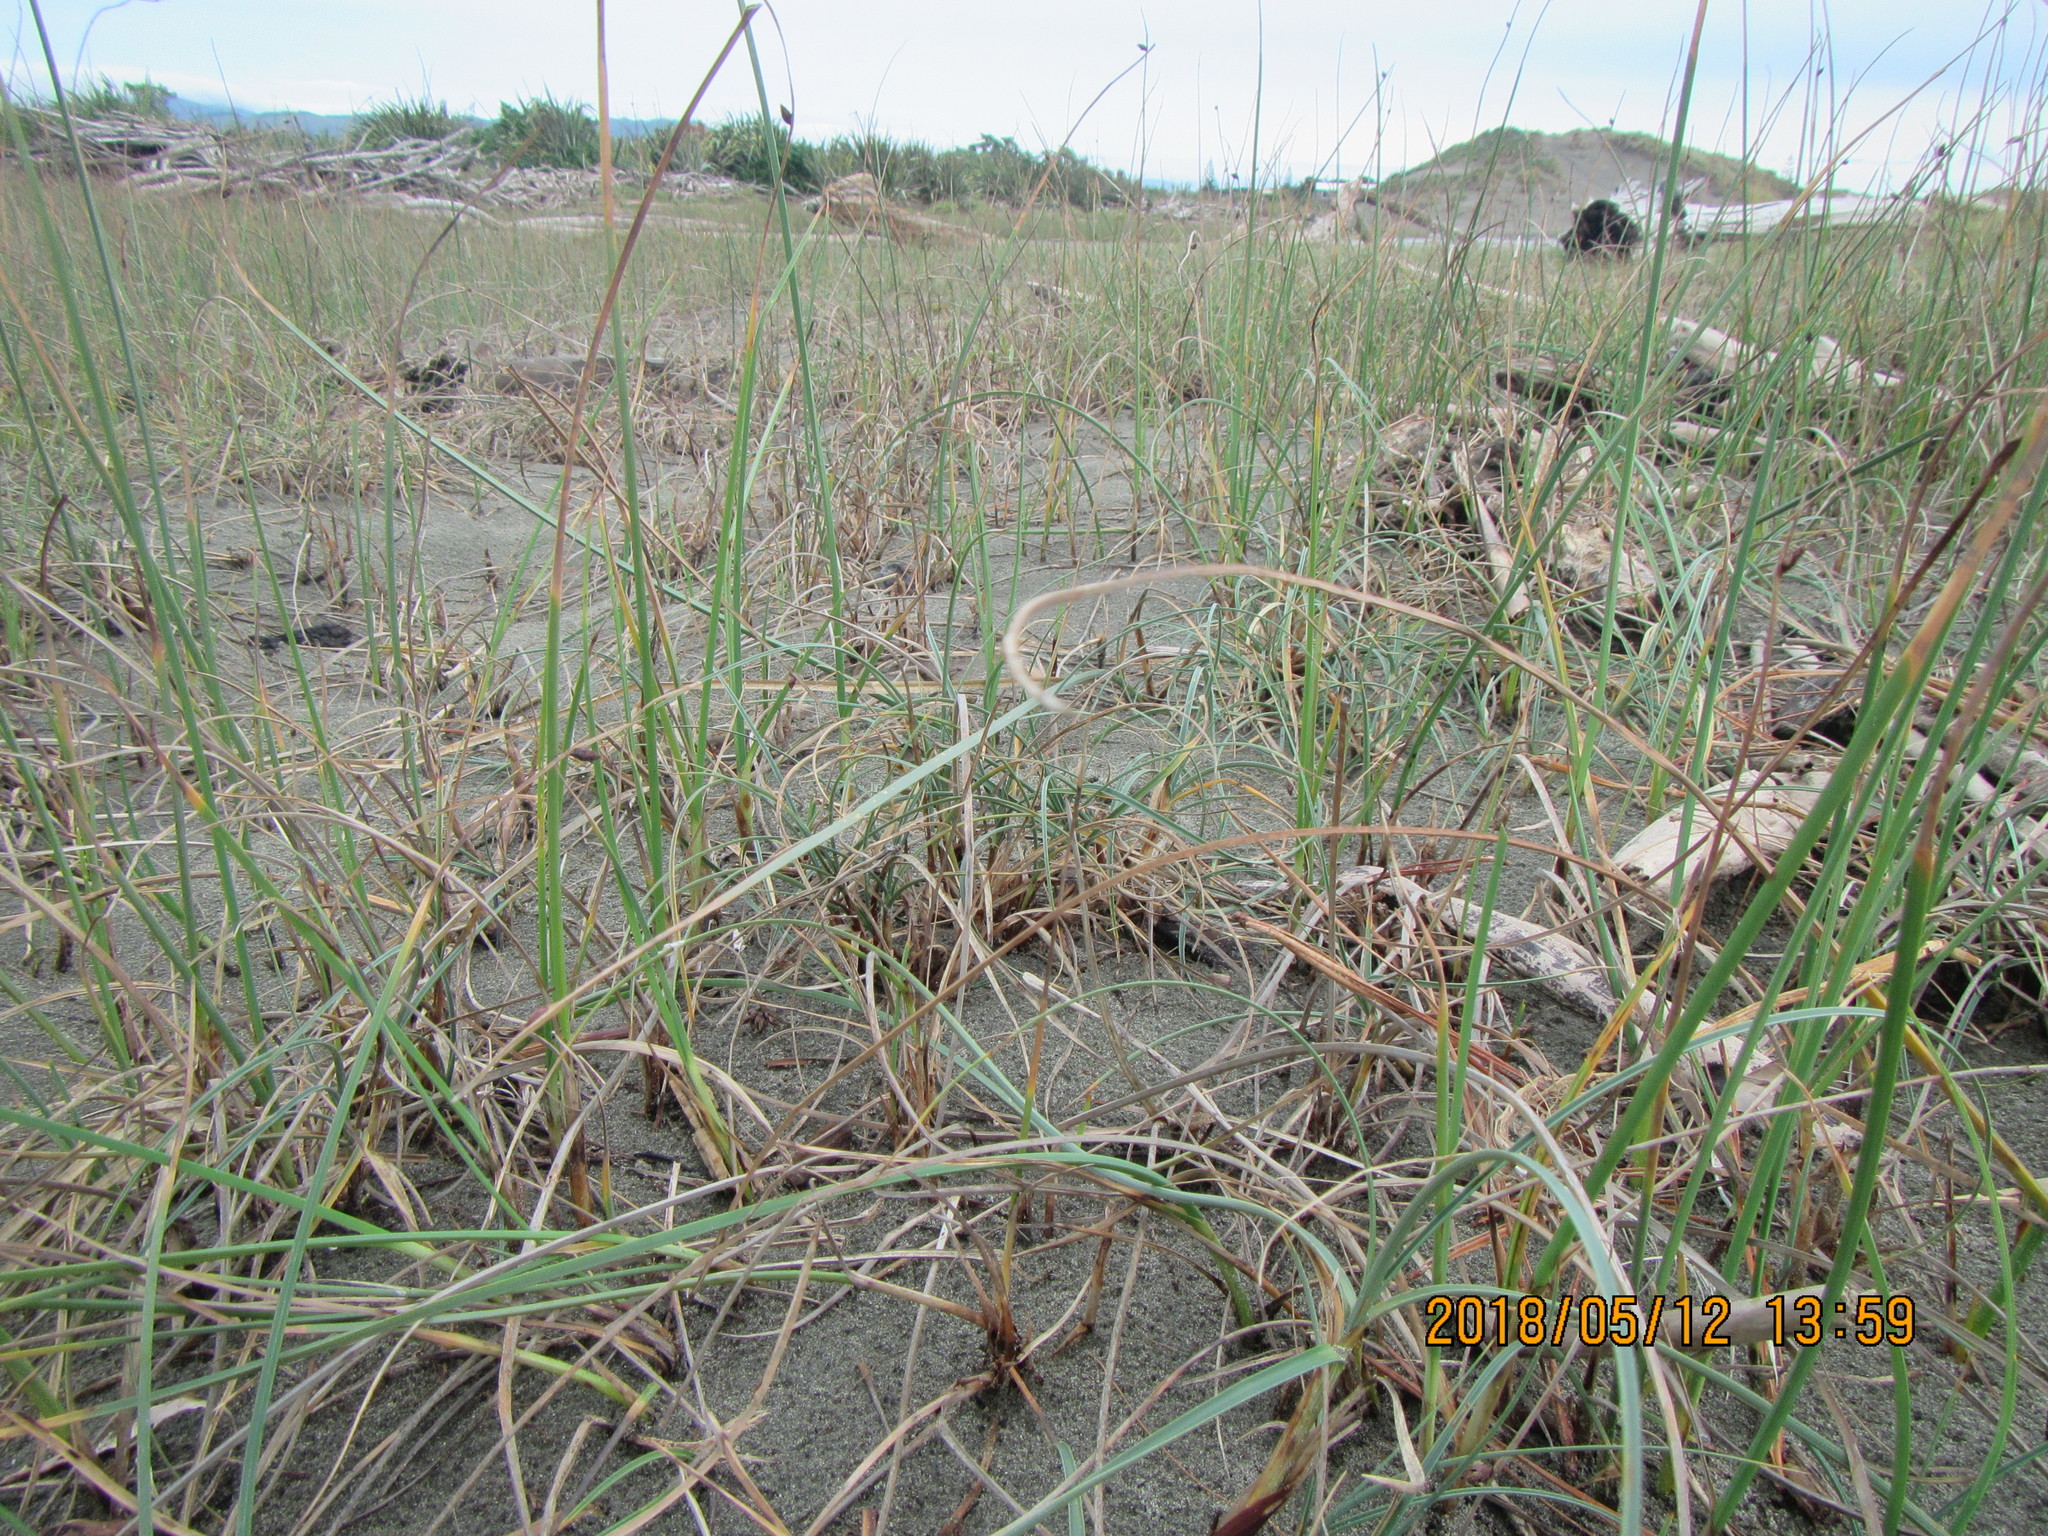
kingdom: Plantae
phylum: Tracheophyta
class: Liliopsida
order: Poales
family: Cyperaceae
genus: Carex
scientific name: Carex pumila
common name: Dwarf sedge
